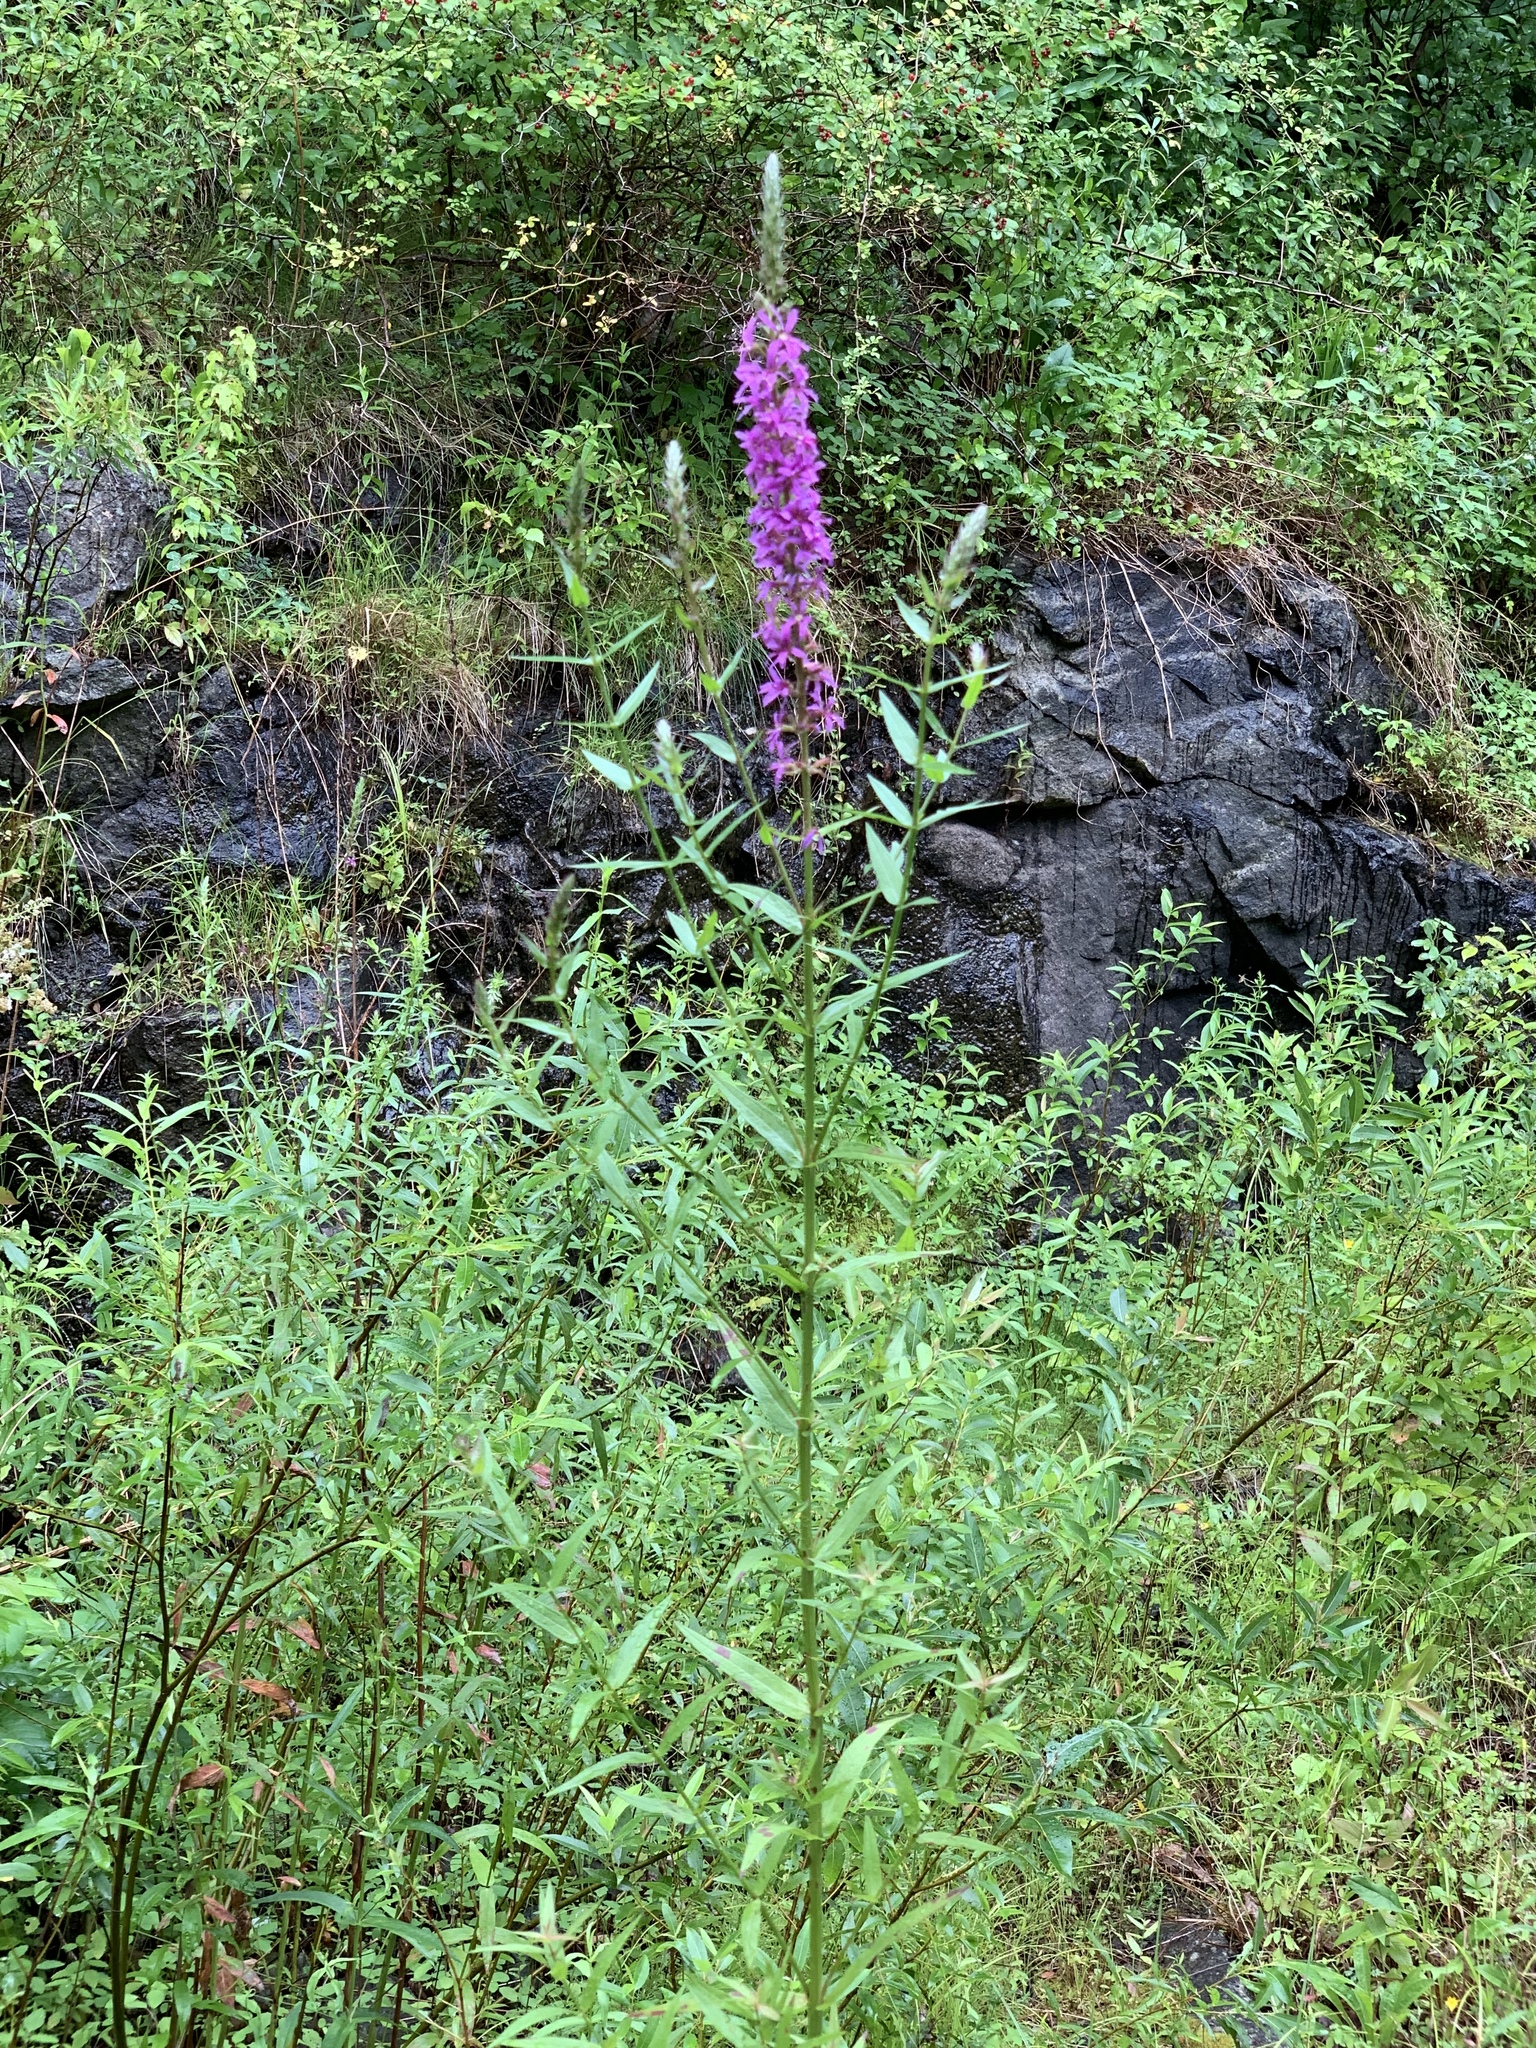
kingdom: Plantae
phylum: Tracheophyta
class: Magnoliopsida
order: Myrtales
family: Lythraceae
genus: Lythrum
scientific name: Lythrum salicaria
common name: Purple loosestrife
